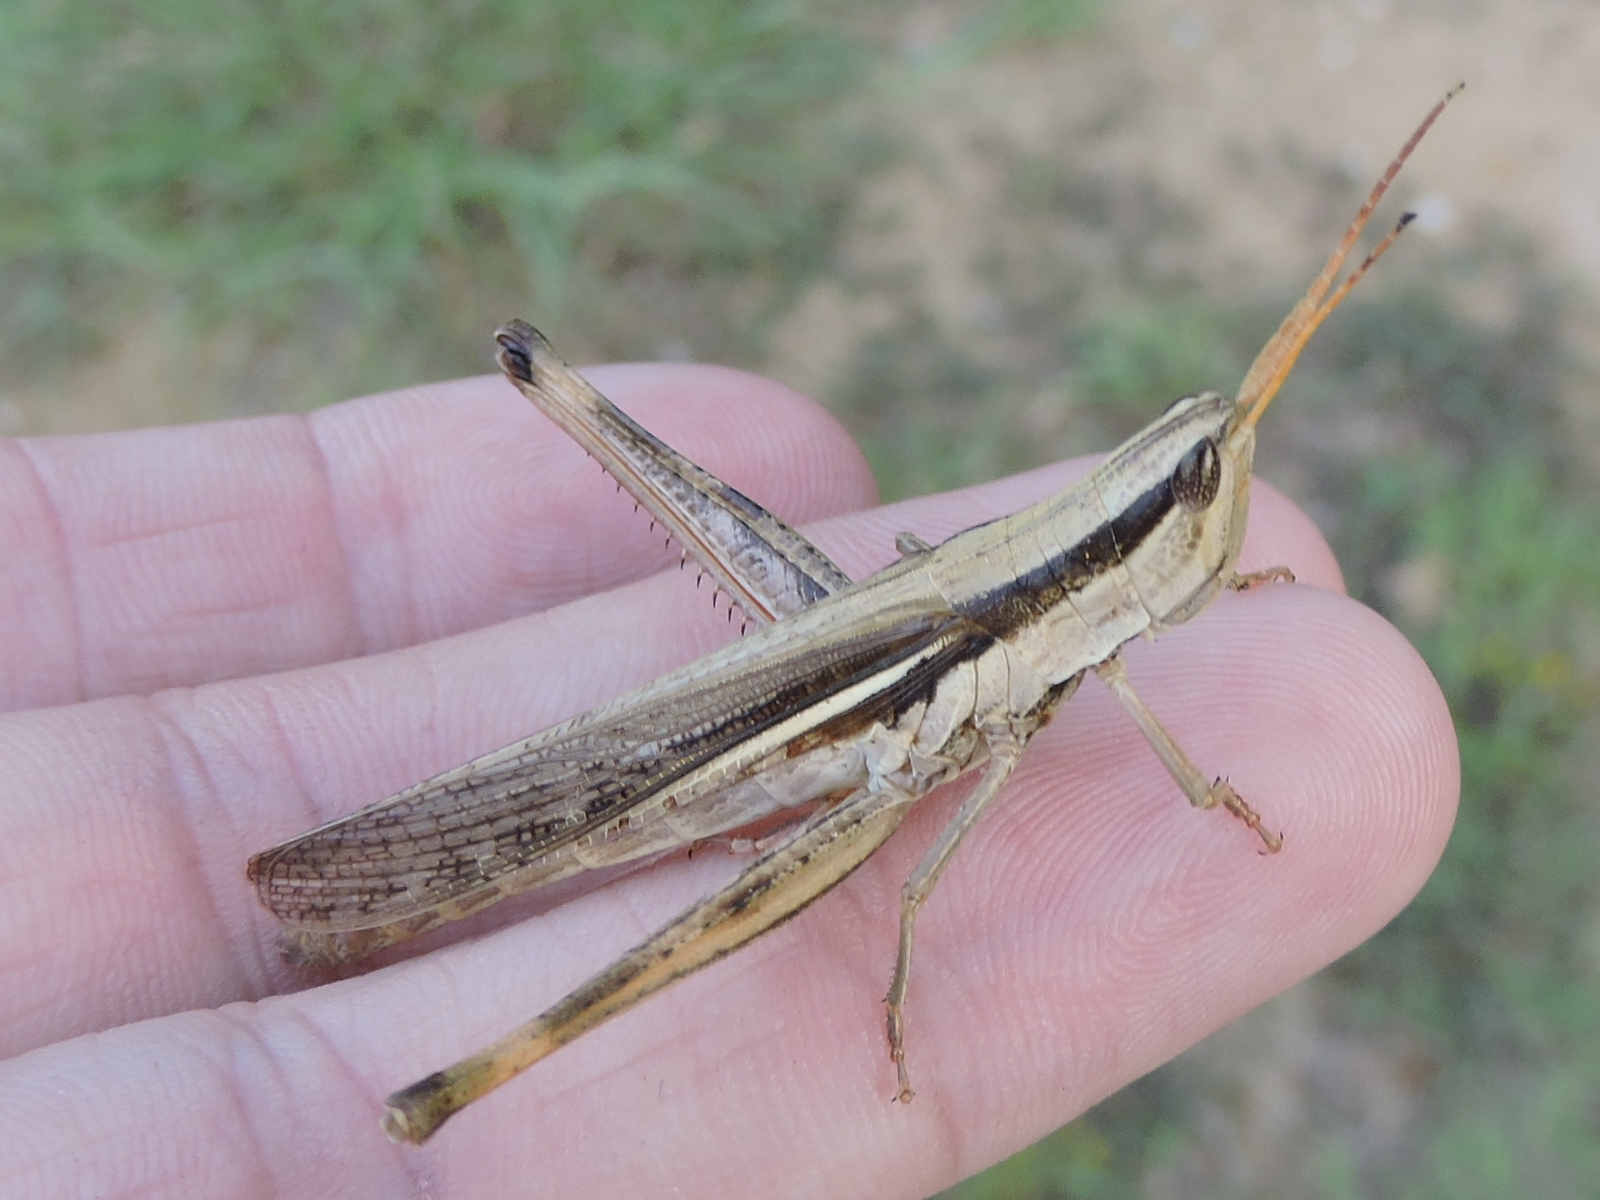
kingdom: Animalia
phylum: Arthropoda
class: Insecta
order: Orthoptera
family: Acrididae
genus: Mermiria
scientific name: Mermiria bivittata
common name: Two-striped mermiria grasshopper
